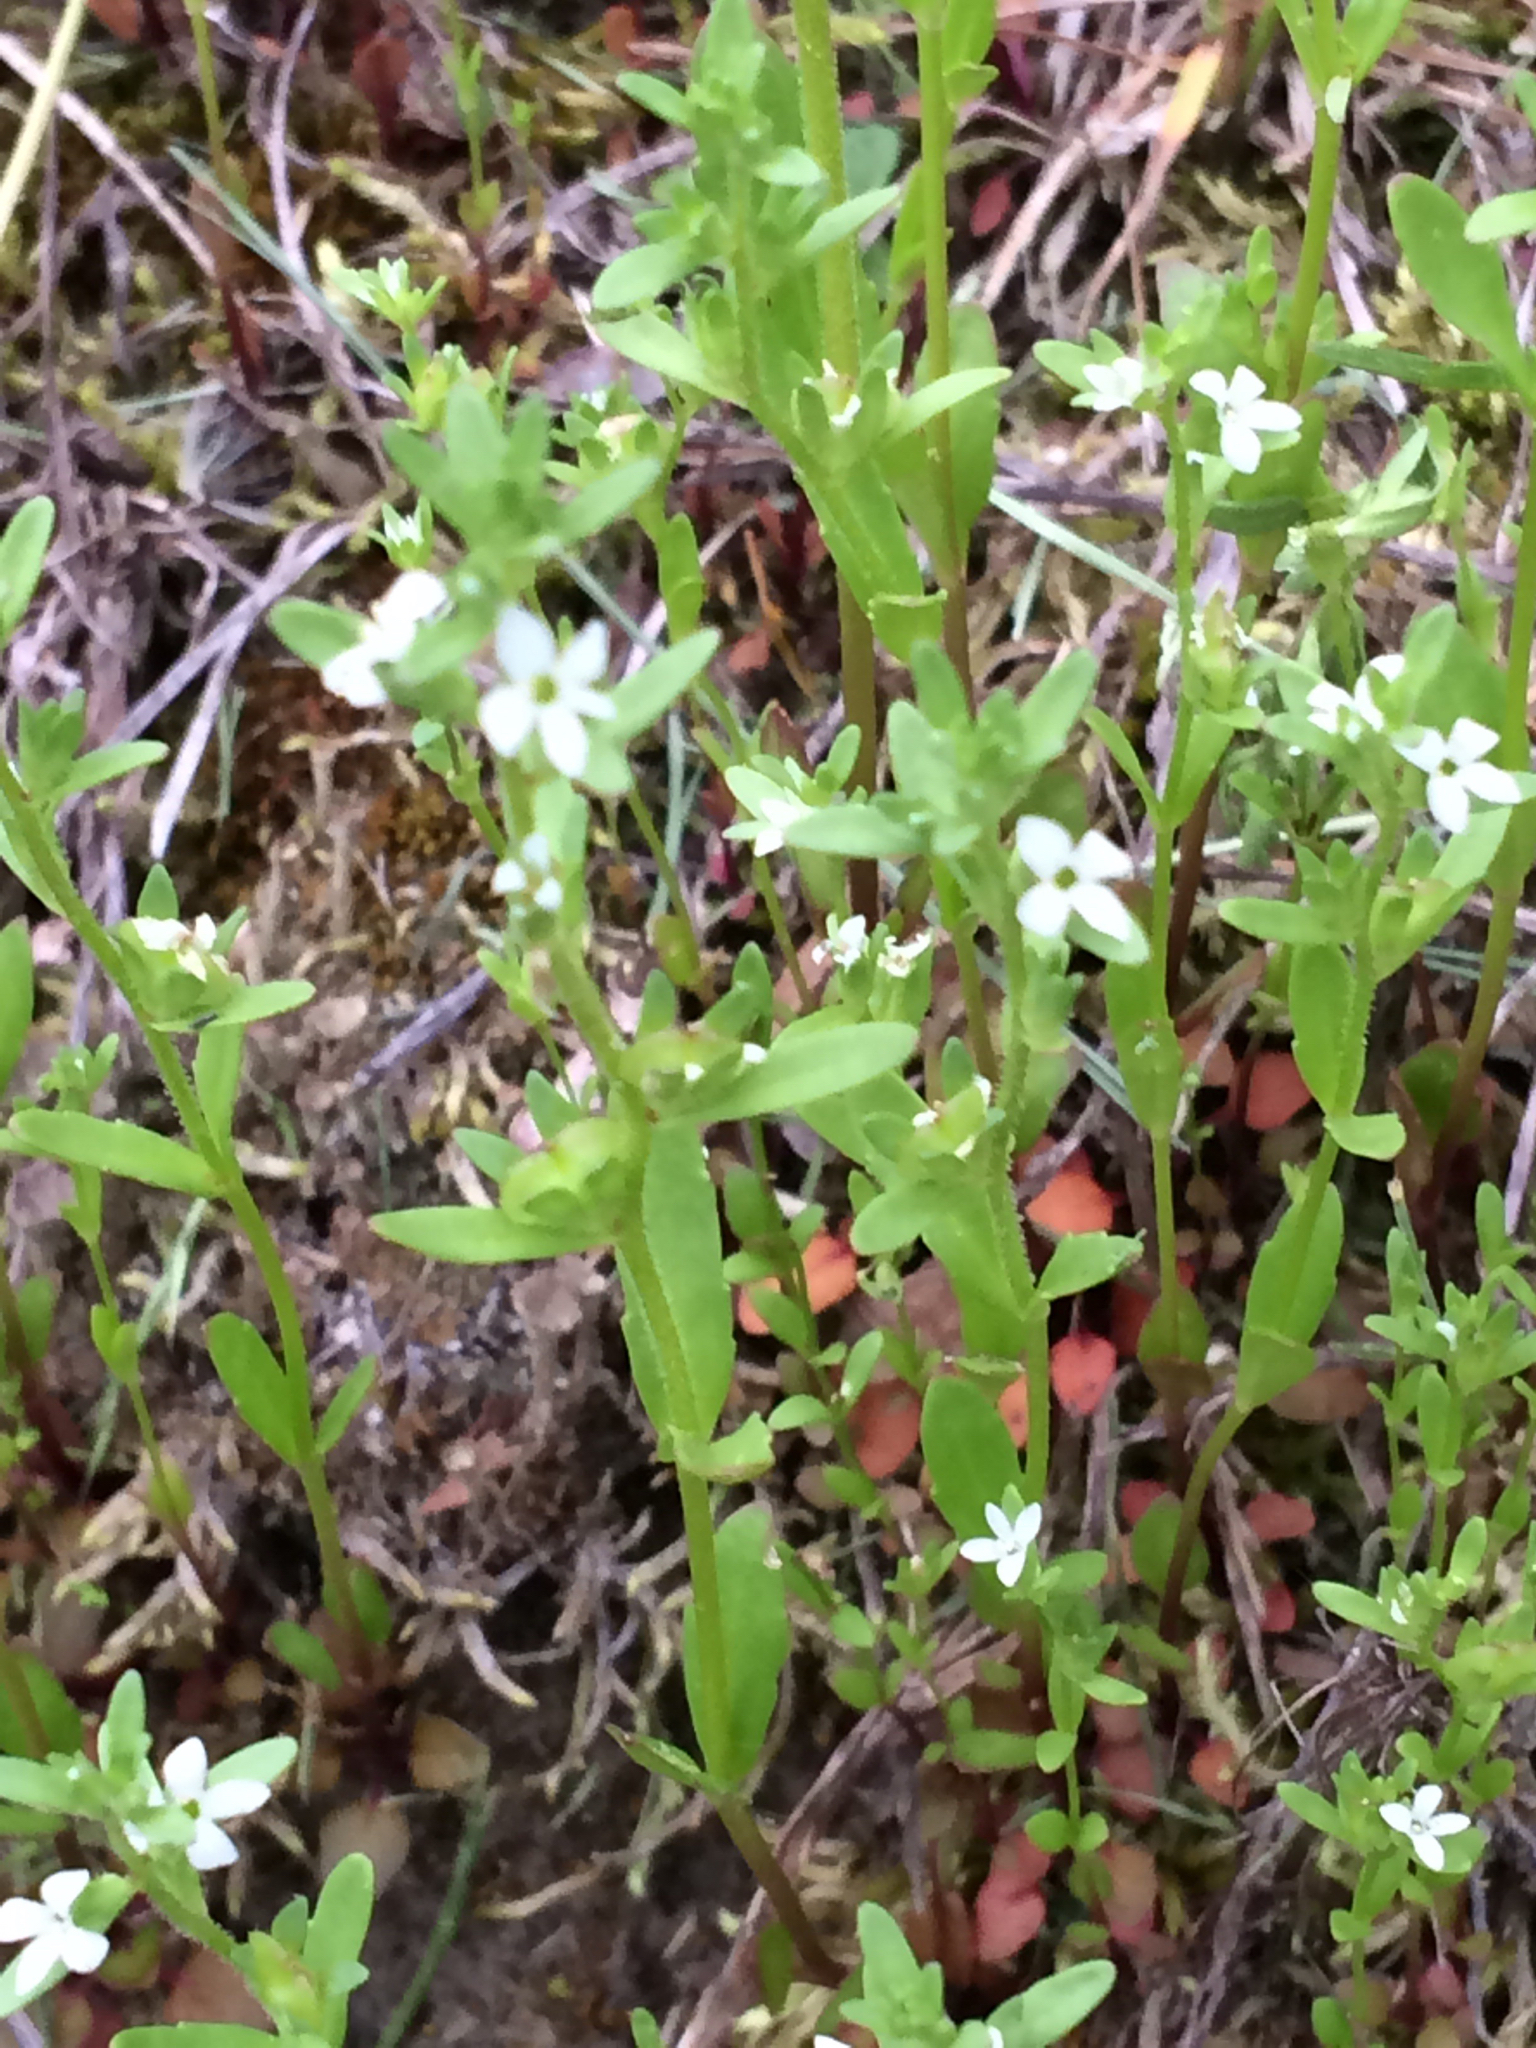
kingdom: Plantae
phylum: Tracheophyta
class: Magnoliopsida
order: Gentianales
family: Rubiaceae
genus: Houstonia
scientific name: Houstonia longifolia
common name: Long-leaved bluets
